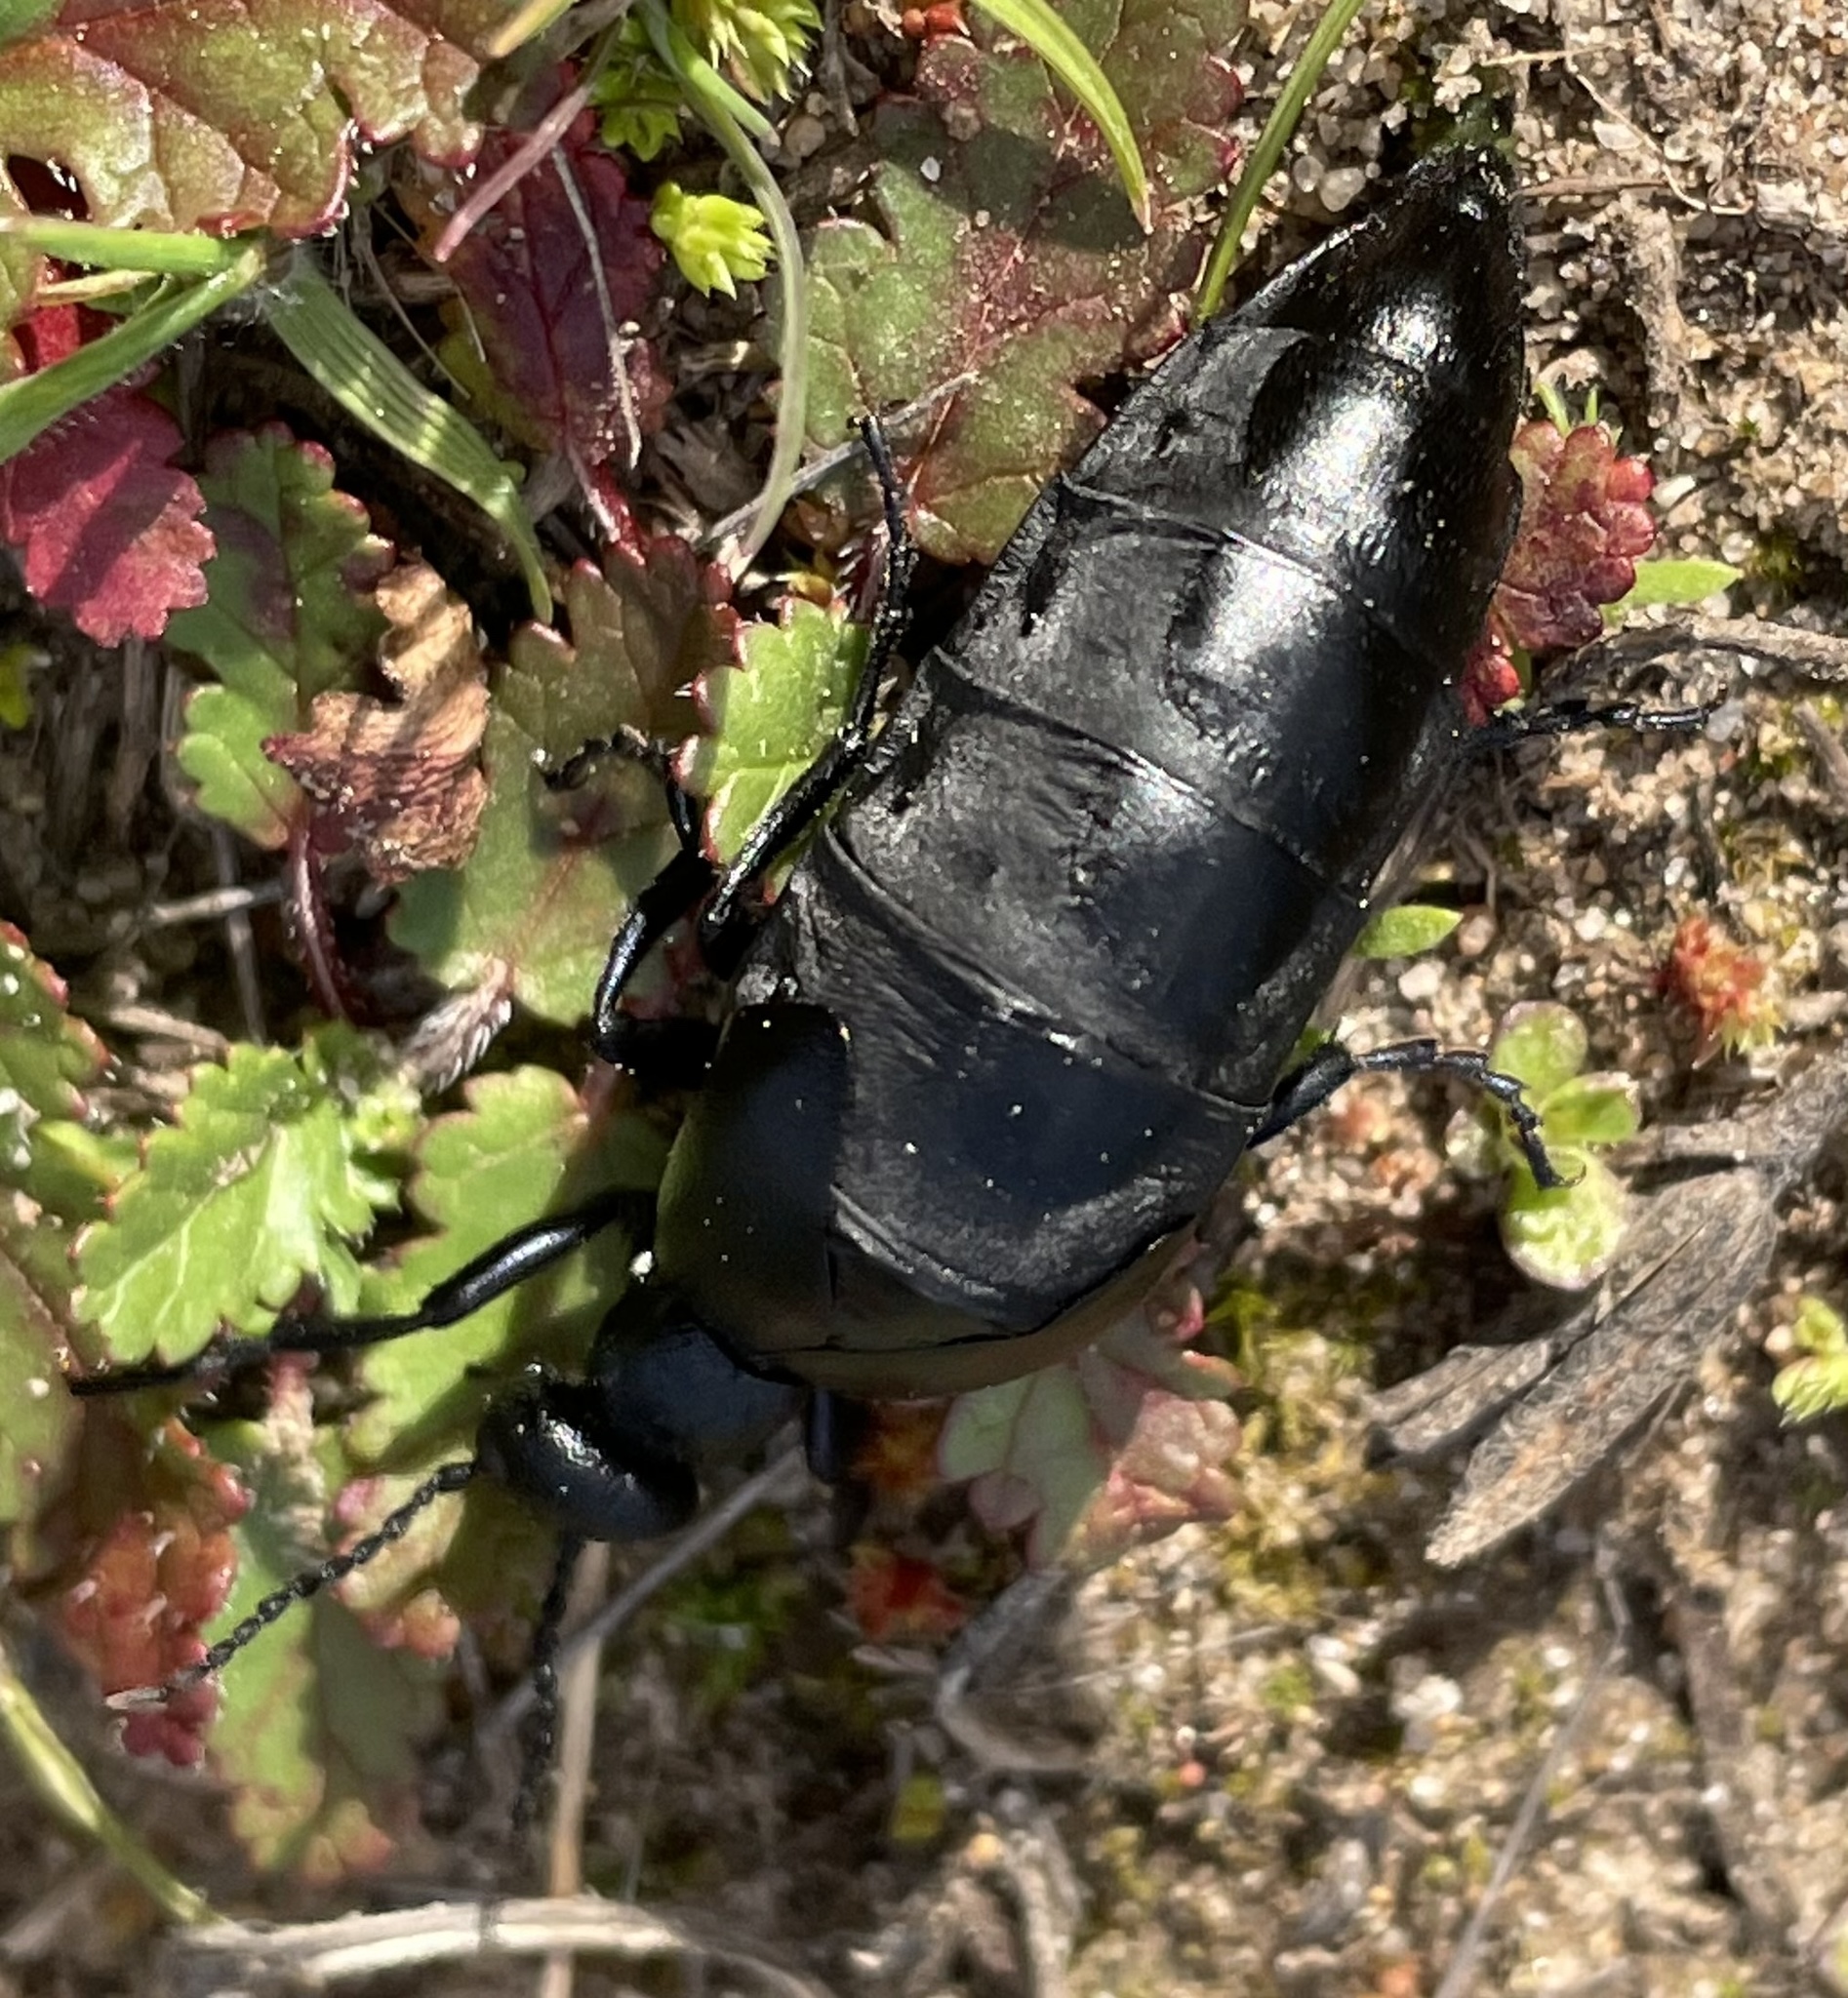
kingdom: Animalia
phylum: Arthropoda
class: Insecta
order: Coleoptera
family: Meloidae
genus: Meloe
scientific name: Meloe angusticollis
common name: Short-winged blister beetle
